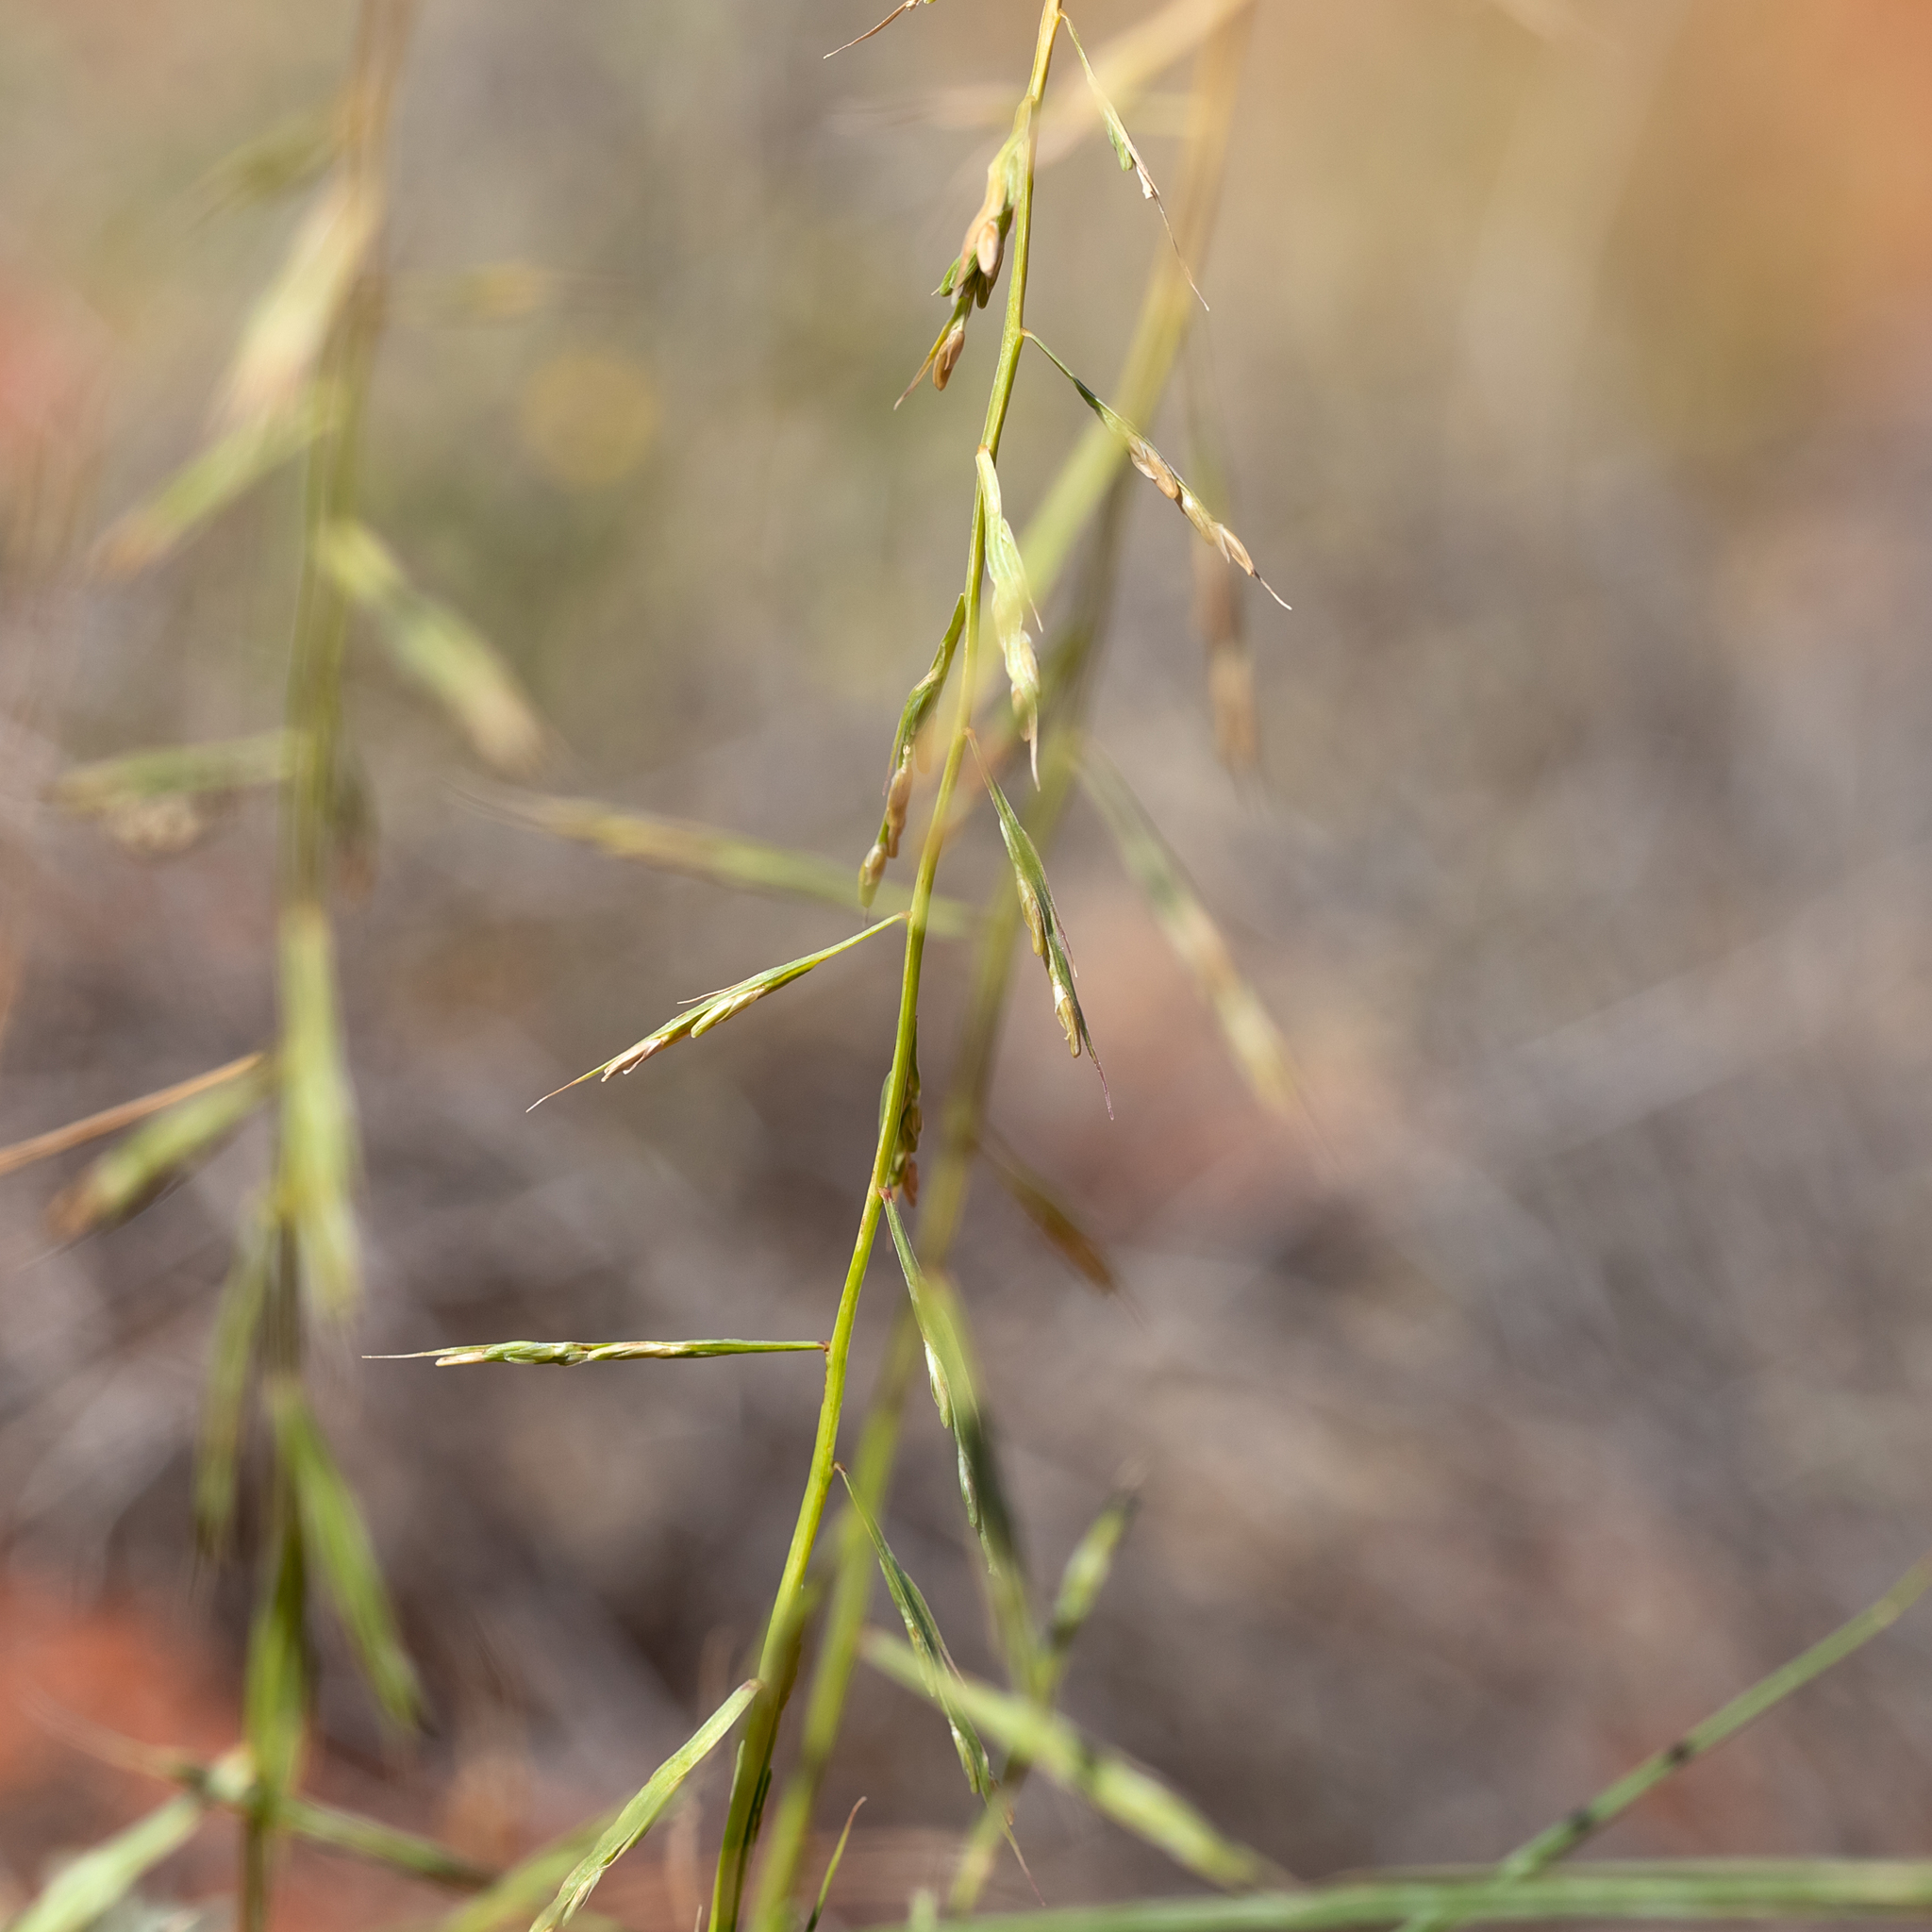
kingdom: Plantae
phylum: Tracheophyta
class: Liliopsida
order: Poales
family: Poaceae
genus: Paractaenum
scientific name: Paractaenum novae-hollandiae
